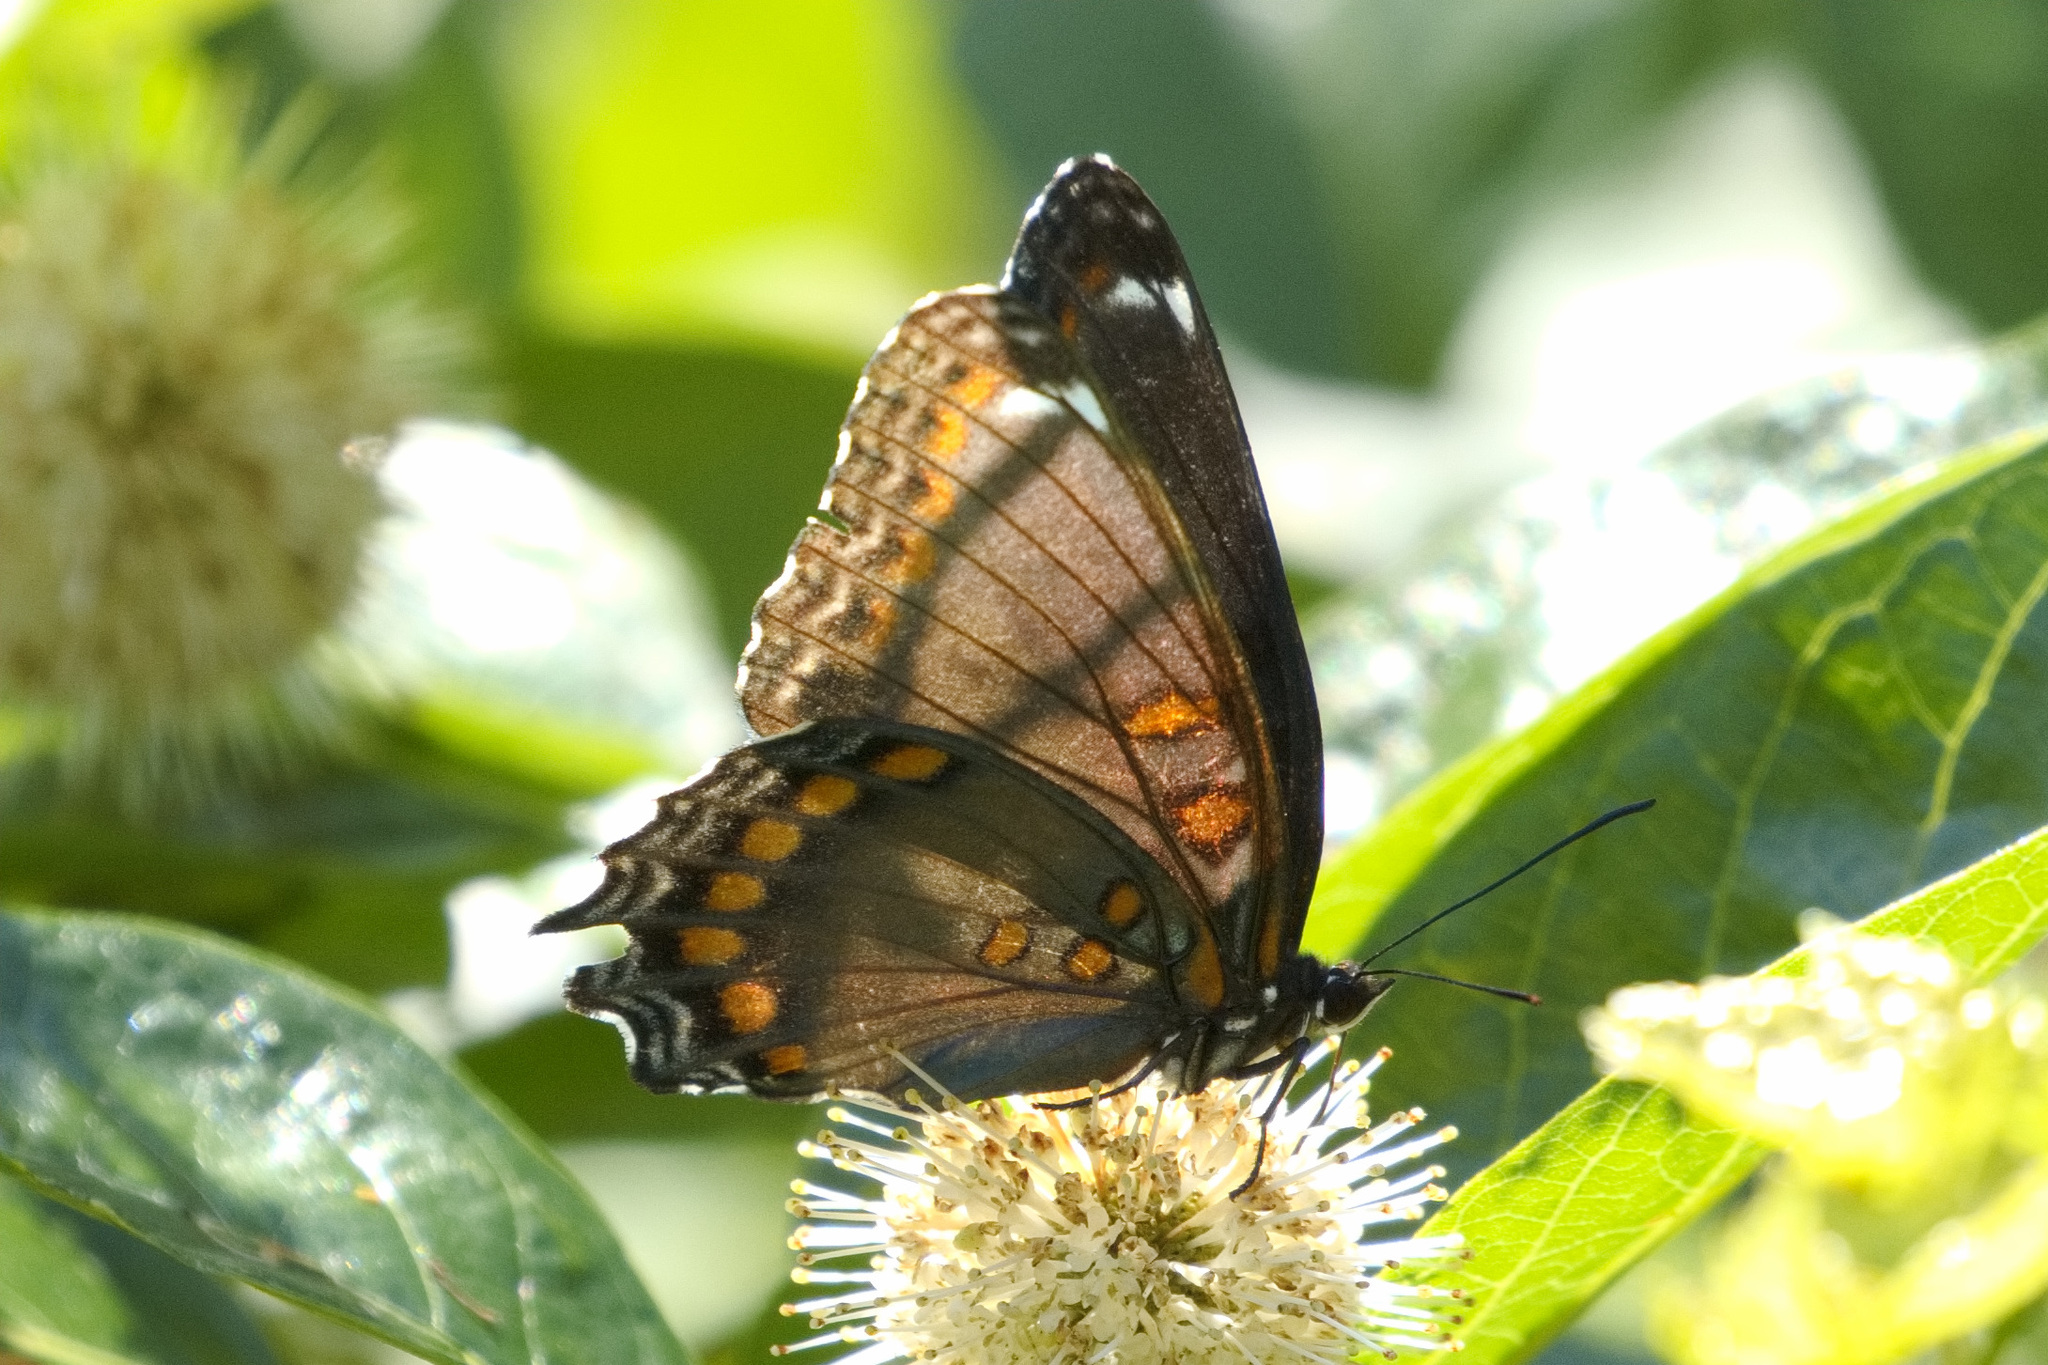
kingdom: Animalia
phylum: Arthropoda
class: Insecta
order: Lepidoptera
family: Nymphalidae
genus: Limenitis
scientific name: Limenitis astyanax
